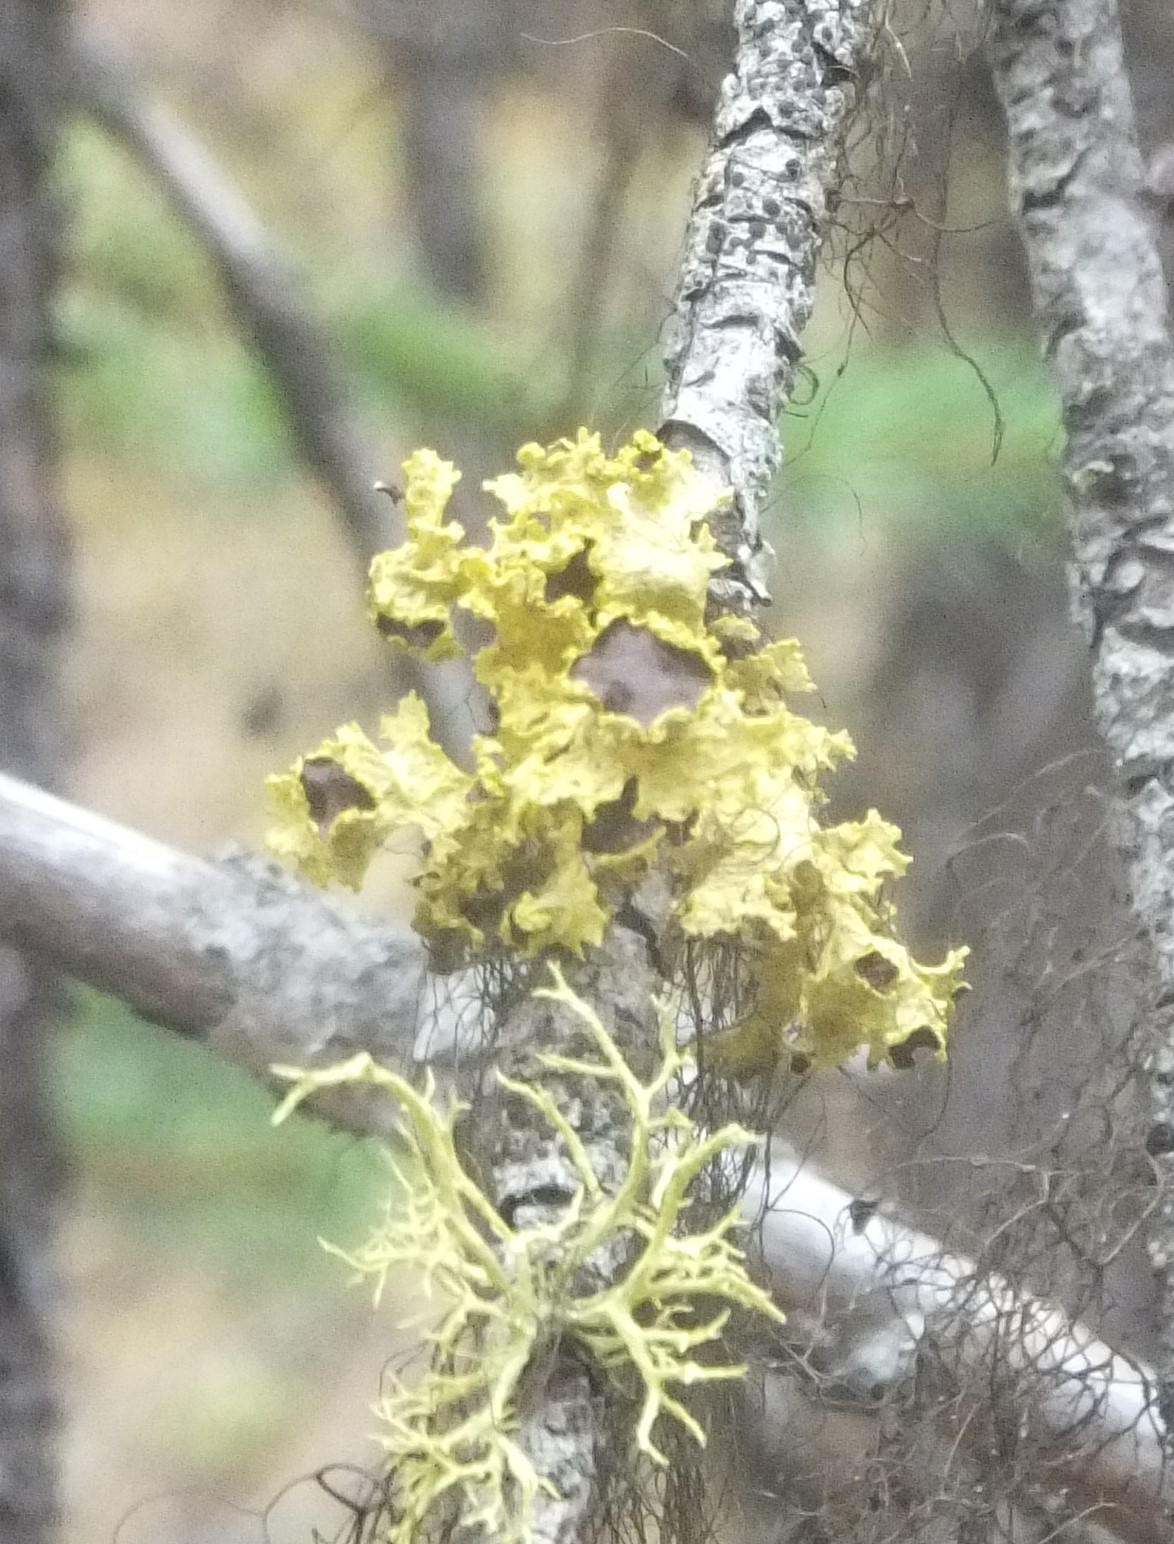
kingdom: Fungi
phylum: Ascomycota
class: Lecanoromycetes
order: Lecanorales
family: Parmeliaceae
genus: Vulpicida
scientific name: Vulpicida canadensis
